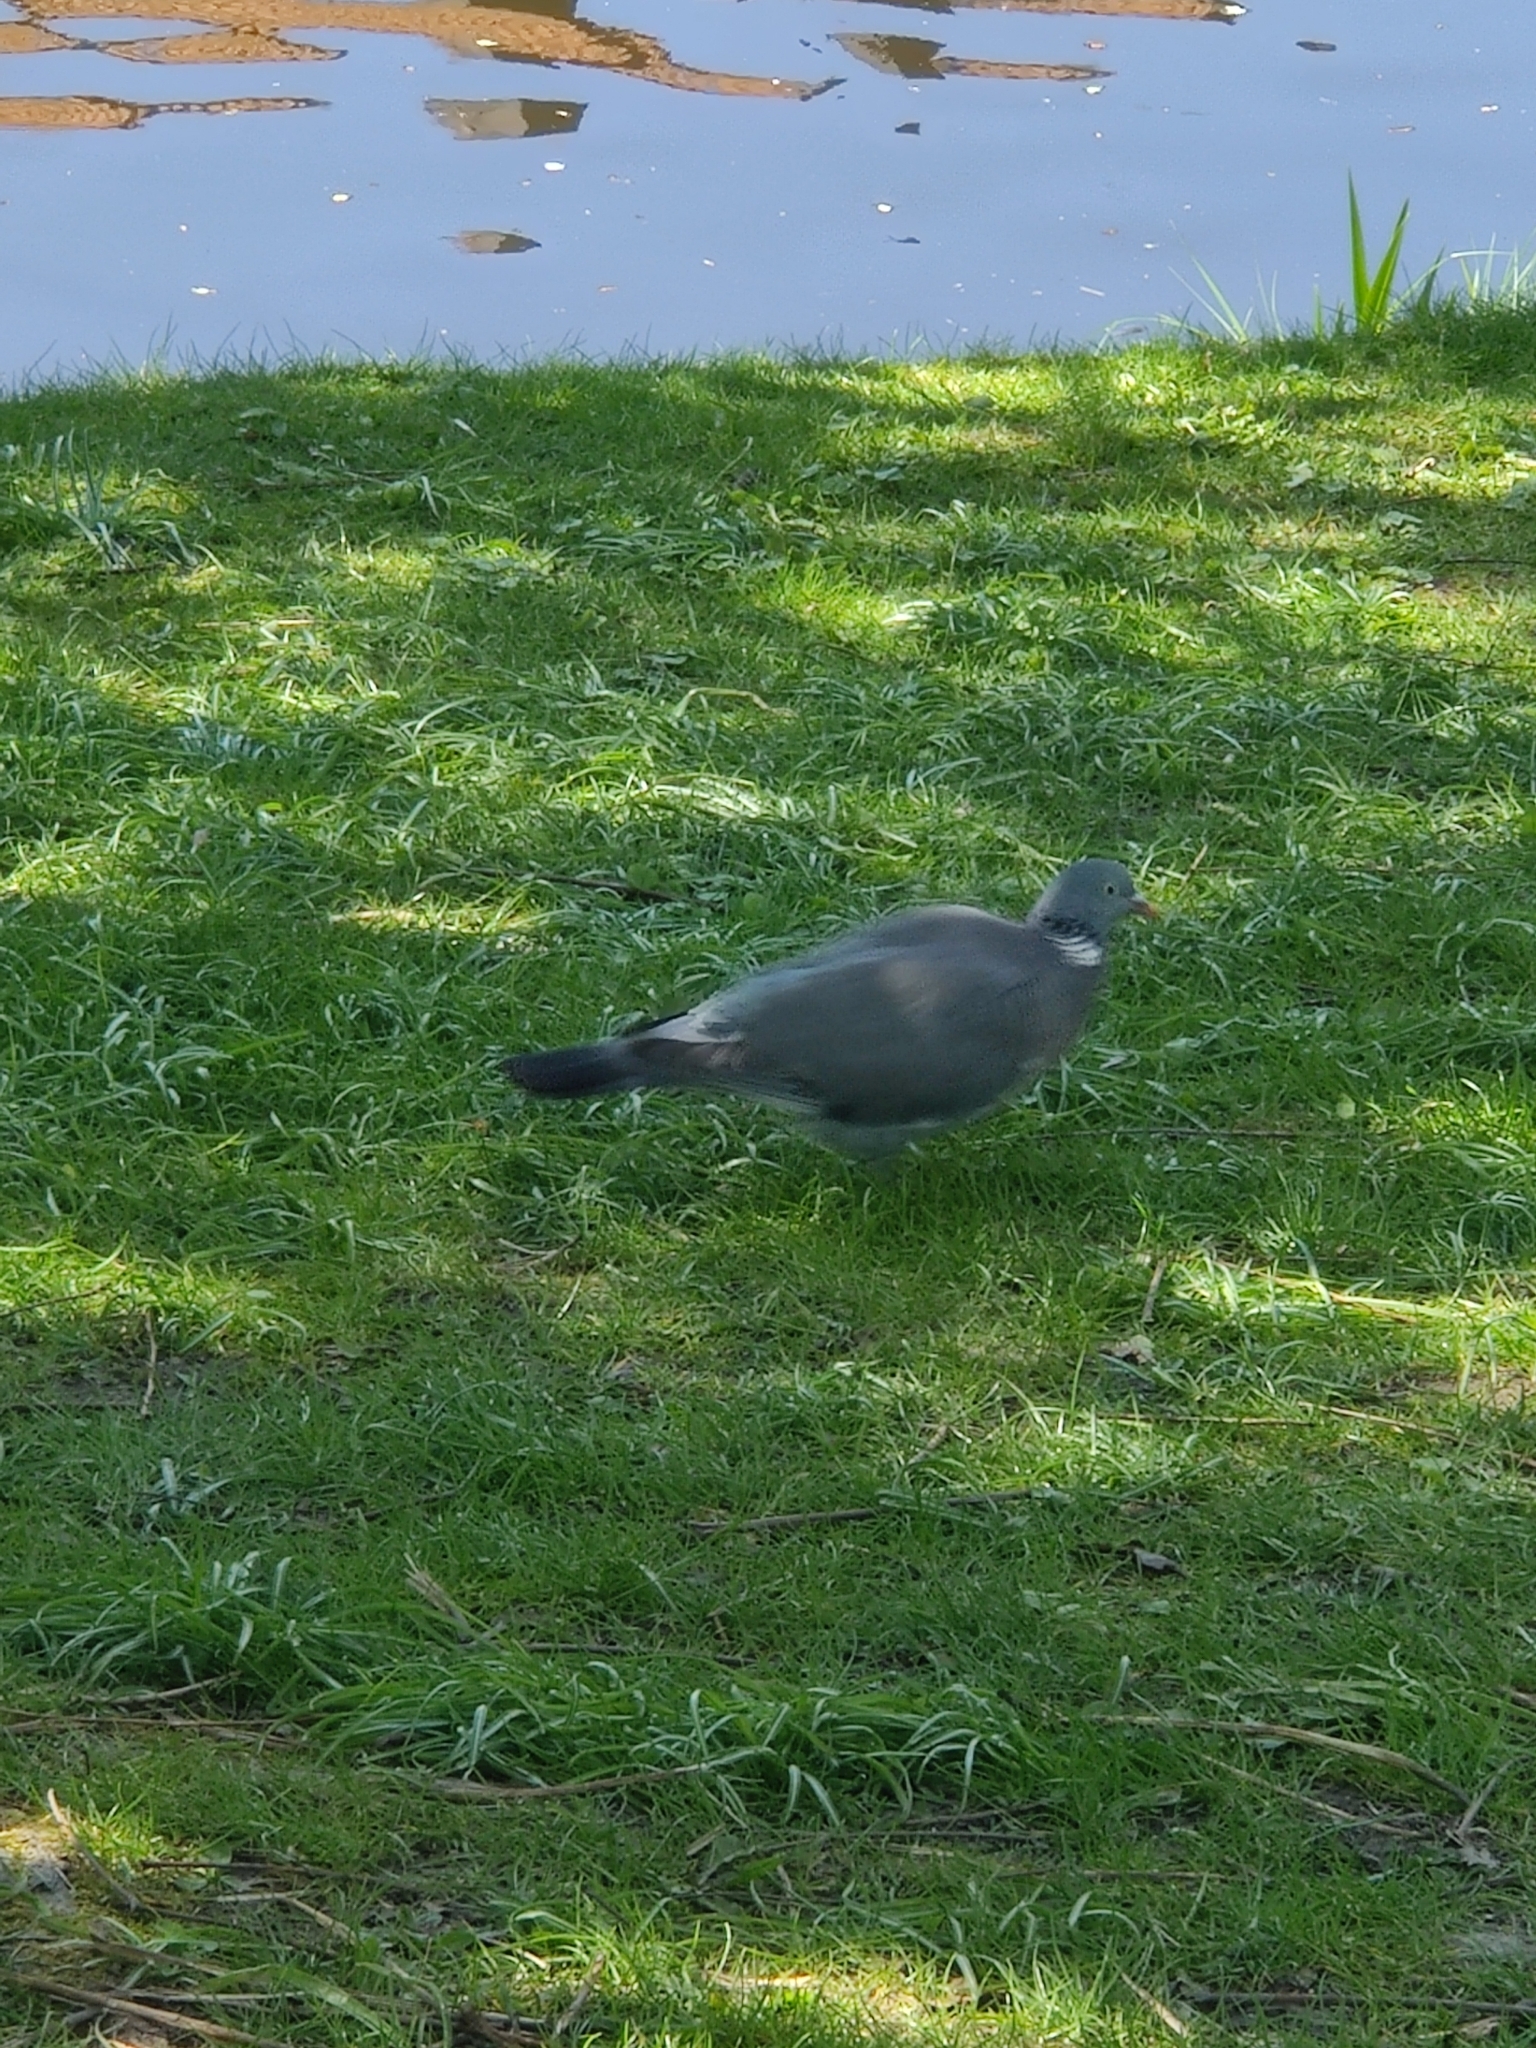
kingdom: Animalia
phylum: Chordata
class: Aves
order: Columbiformes
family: Columbidae
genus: Columba
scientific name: Columba palumbus
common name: Common wood pigeon
